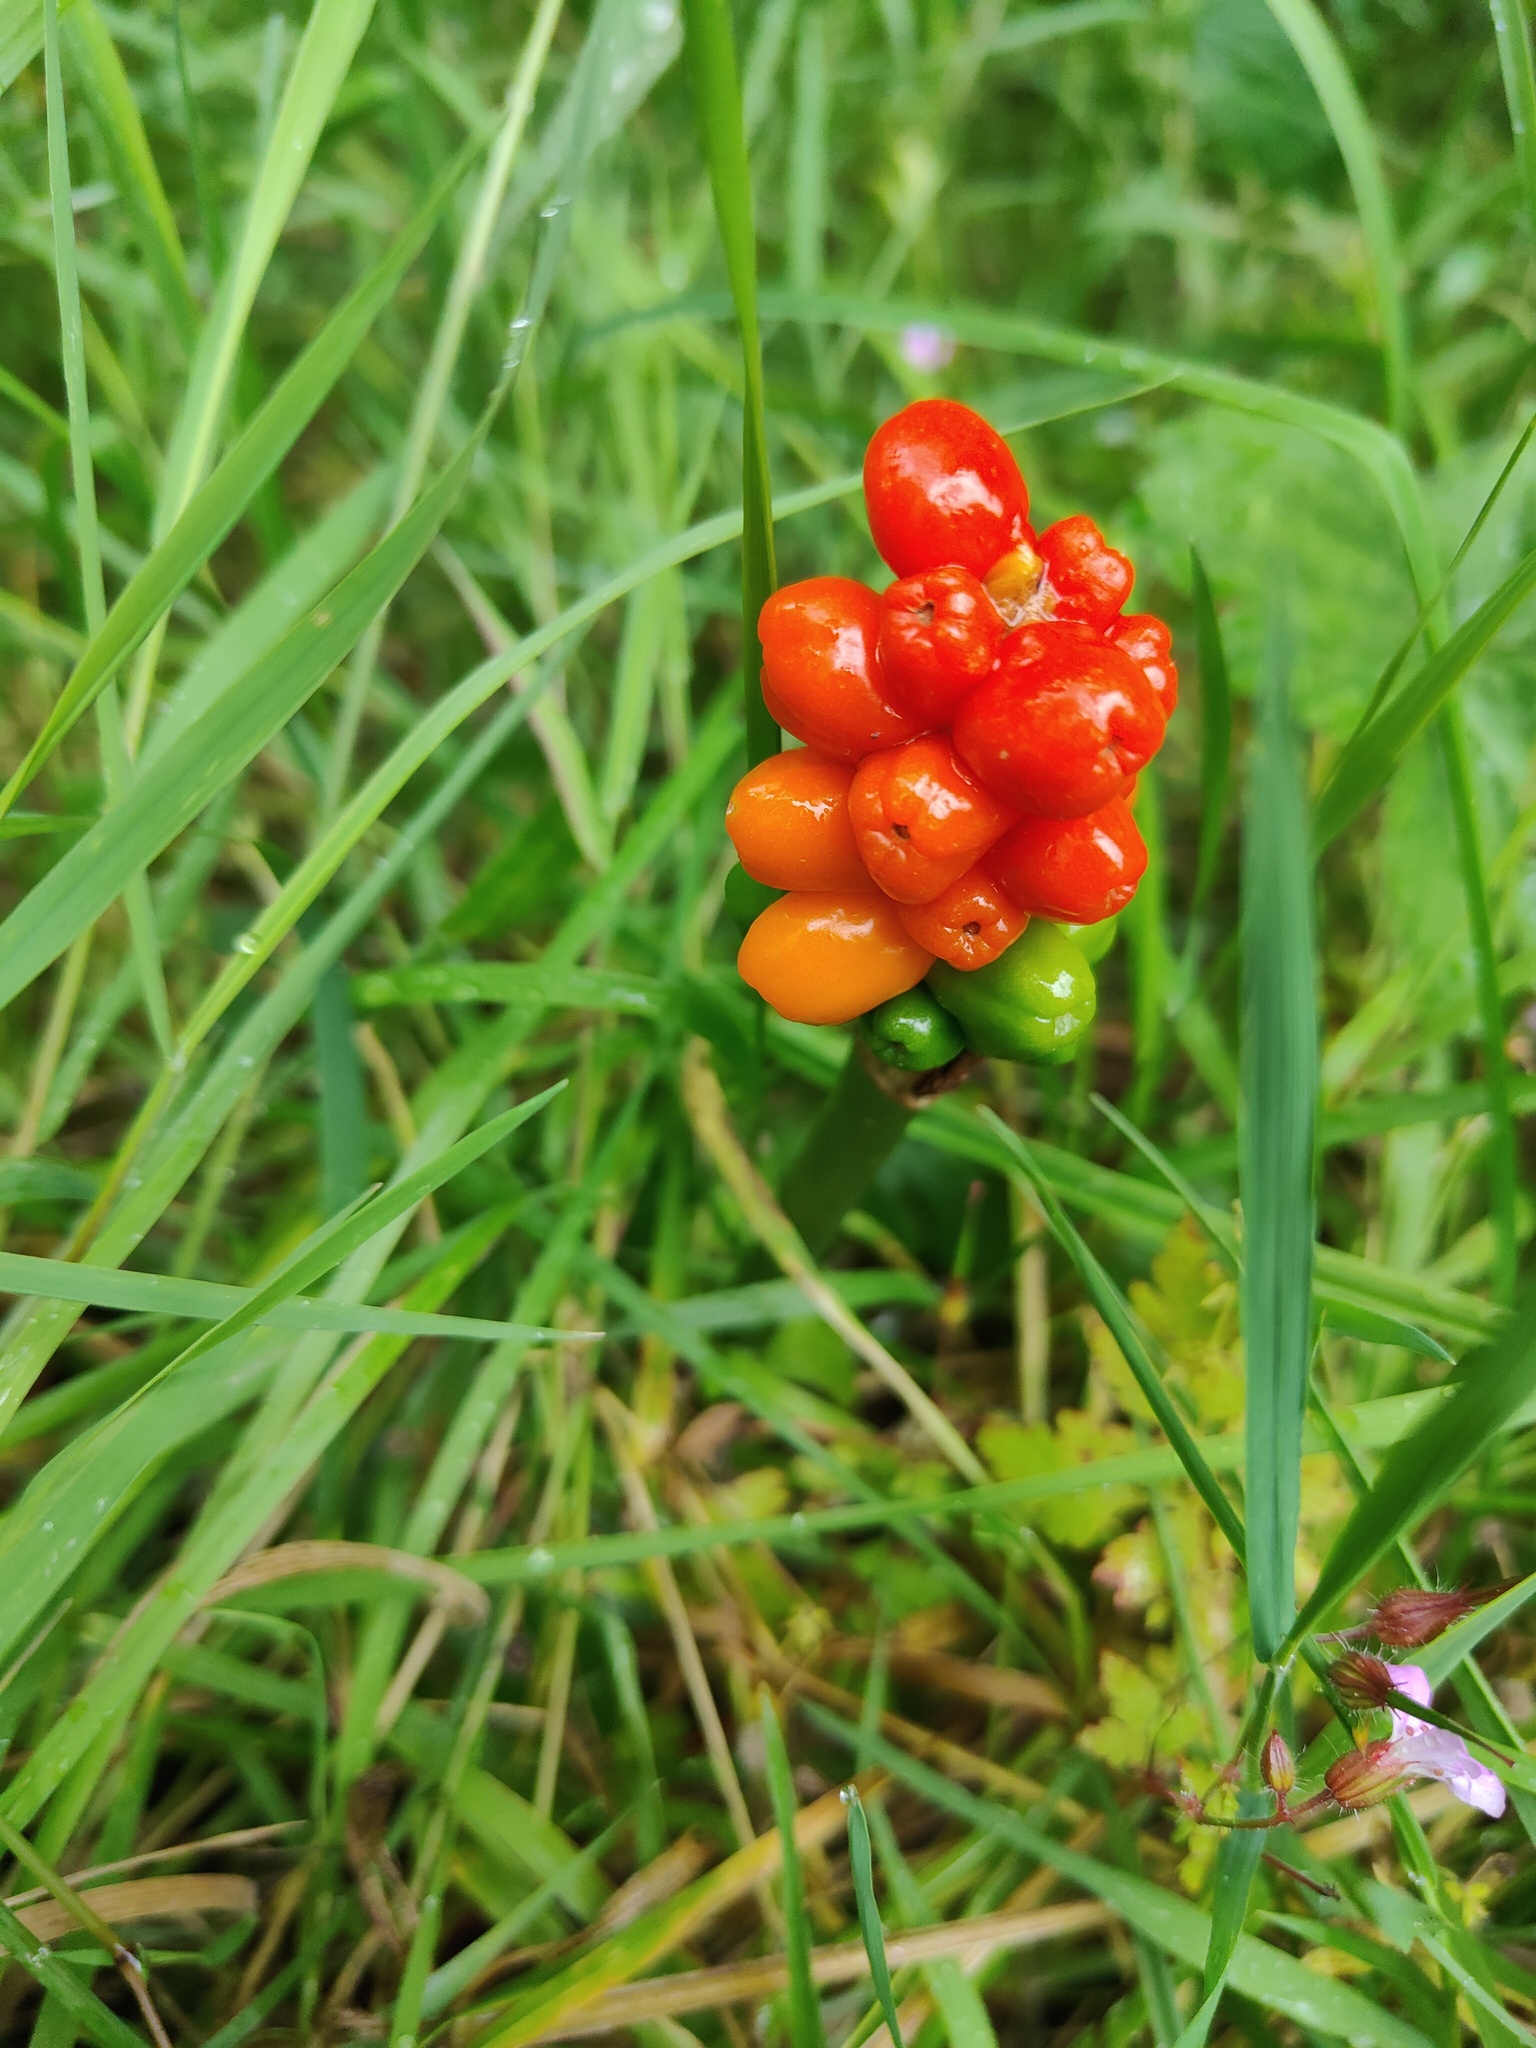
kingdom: Plantae
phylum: Tracheophyta
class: Liliopsida
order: Alismatales
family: Araceae
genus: Arum
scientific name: Arum maculatum
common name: Lords-and-ladies
